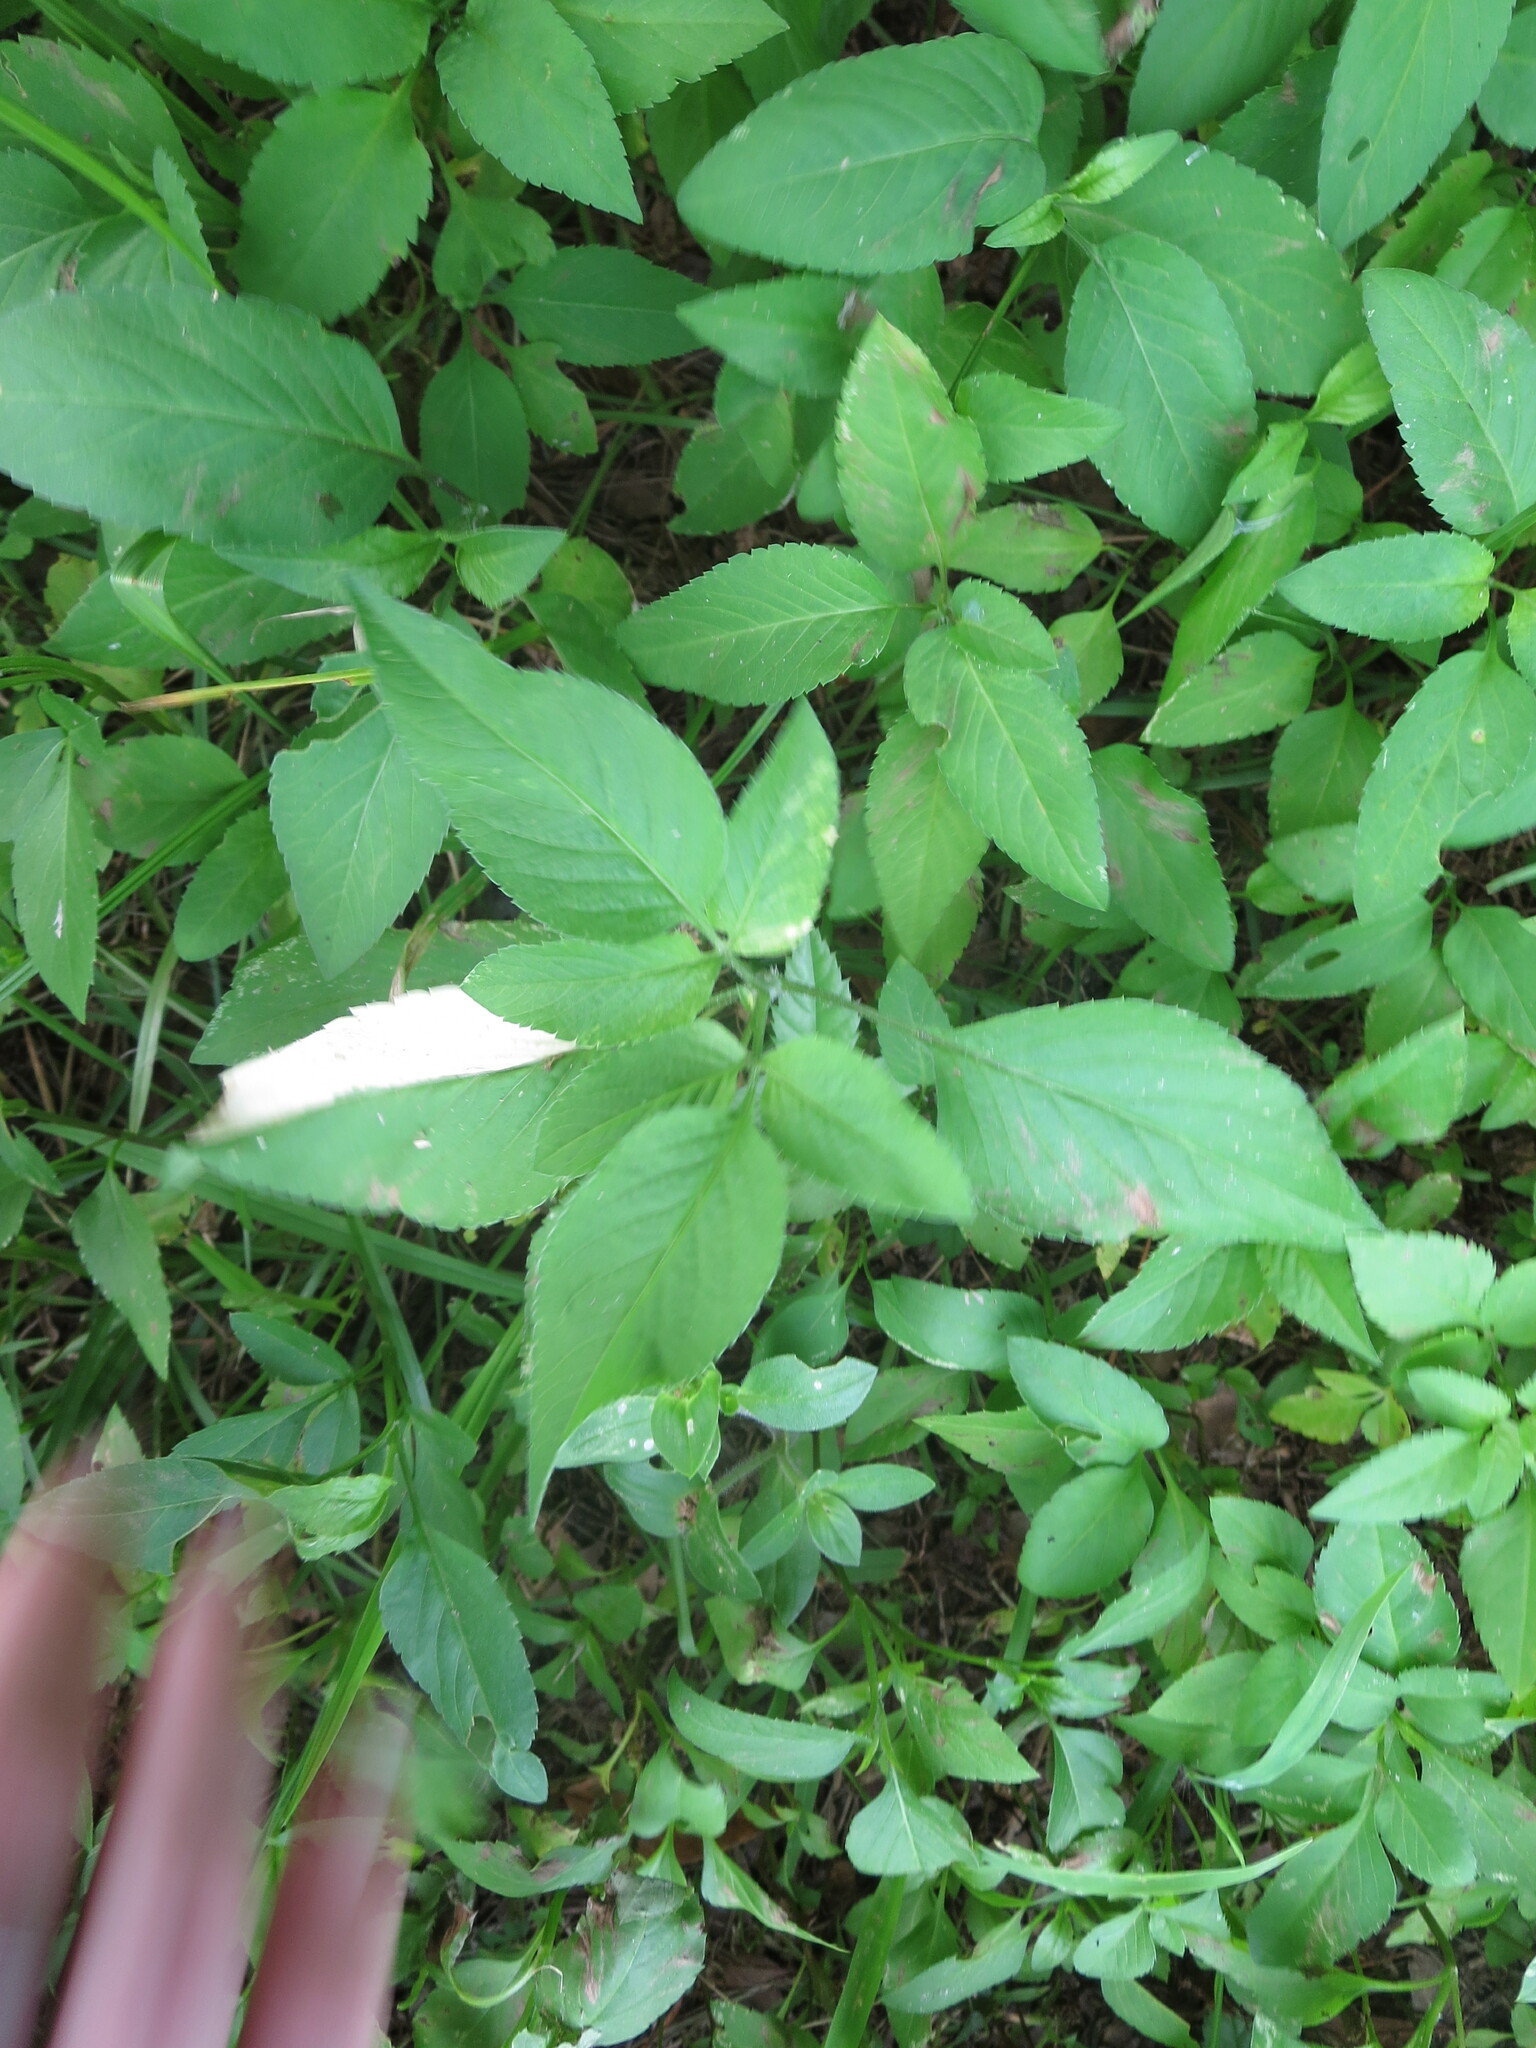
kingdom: Plantae
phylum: Tracheophyta
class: Magnoliopsida
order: Asterales
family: Asteraceae
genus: Bidens
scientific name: Bidens alba
